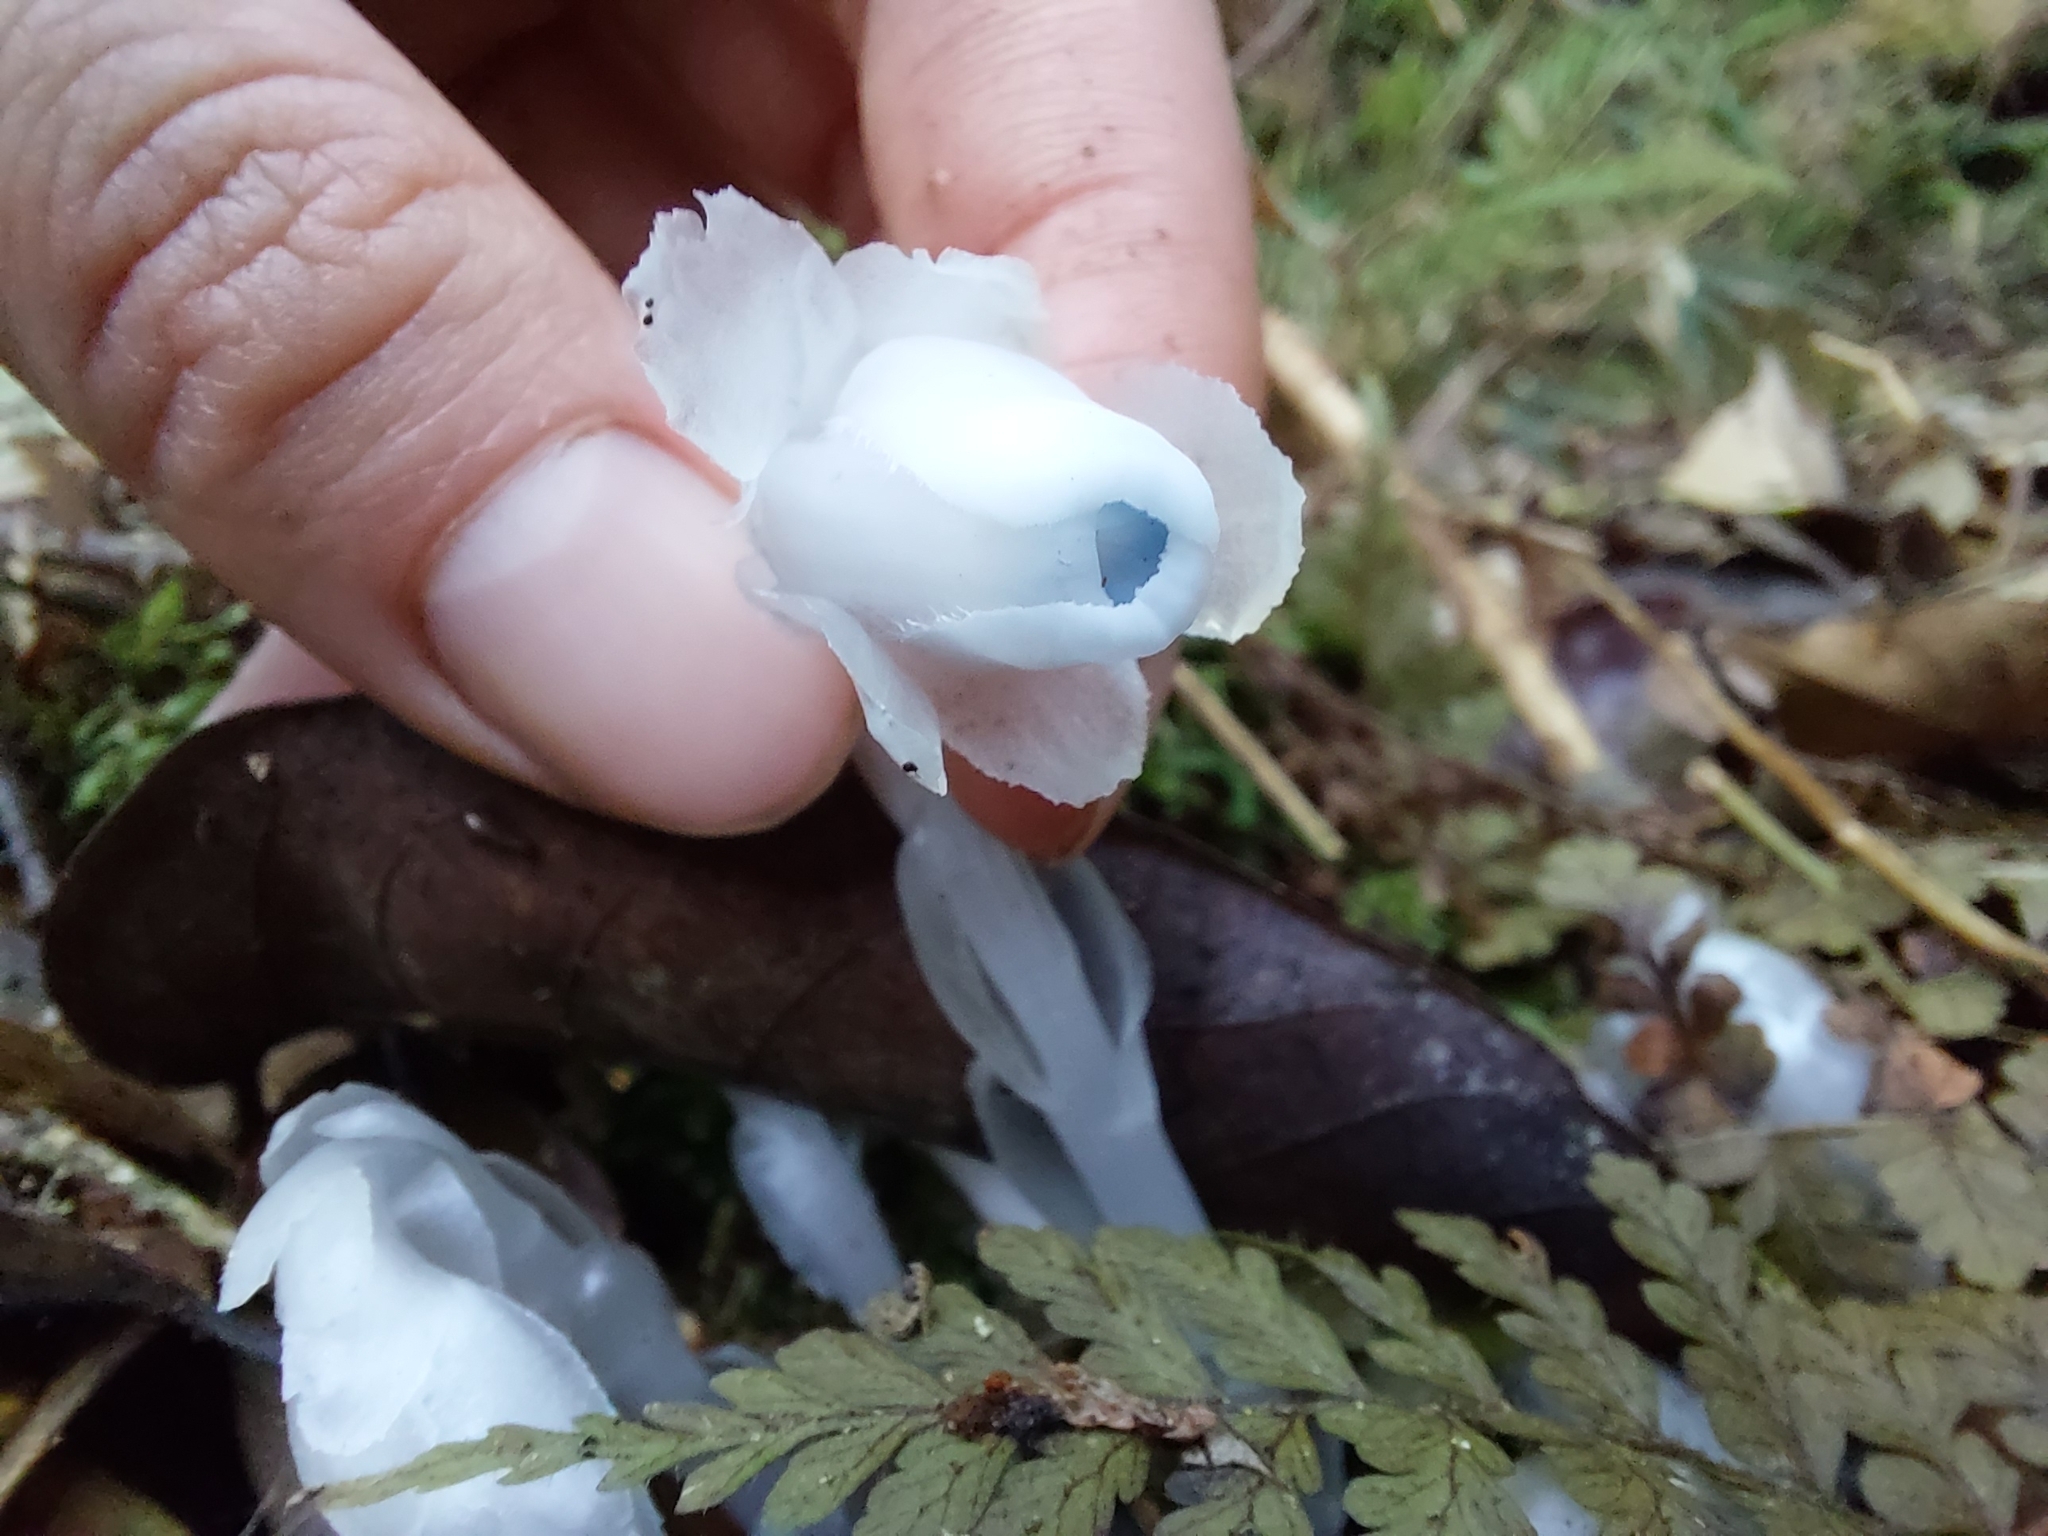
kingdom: Plantae
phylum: Tracheophyta
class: Magnoliopsida
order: Ericales
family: Ericaceae
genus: Monotropastrum
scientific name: Monotropastrum humile
